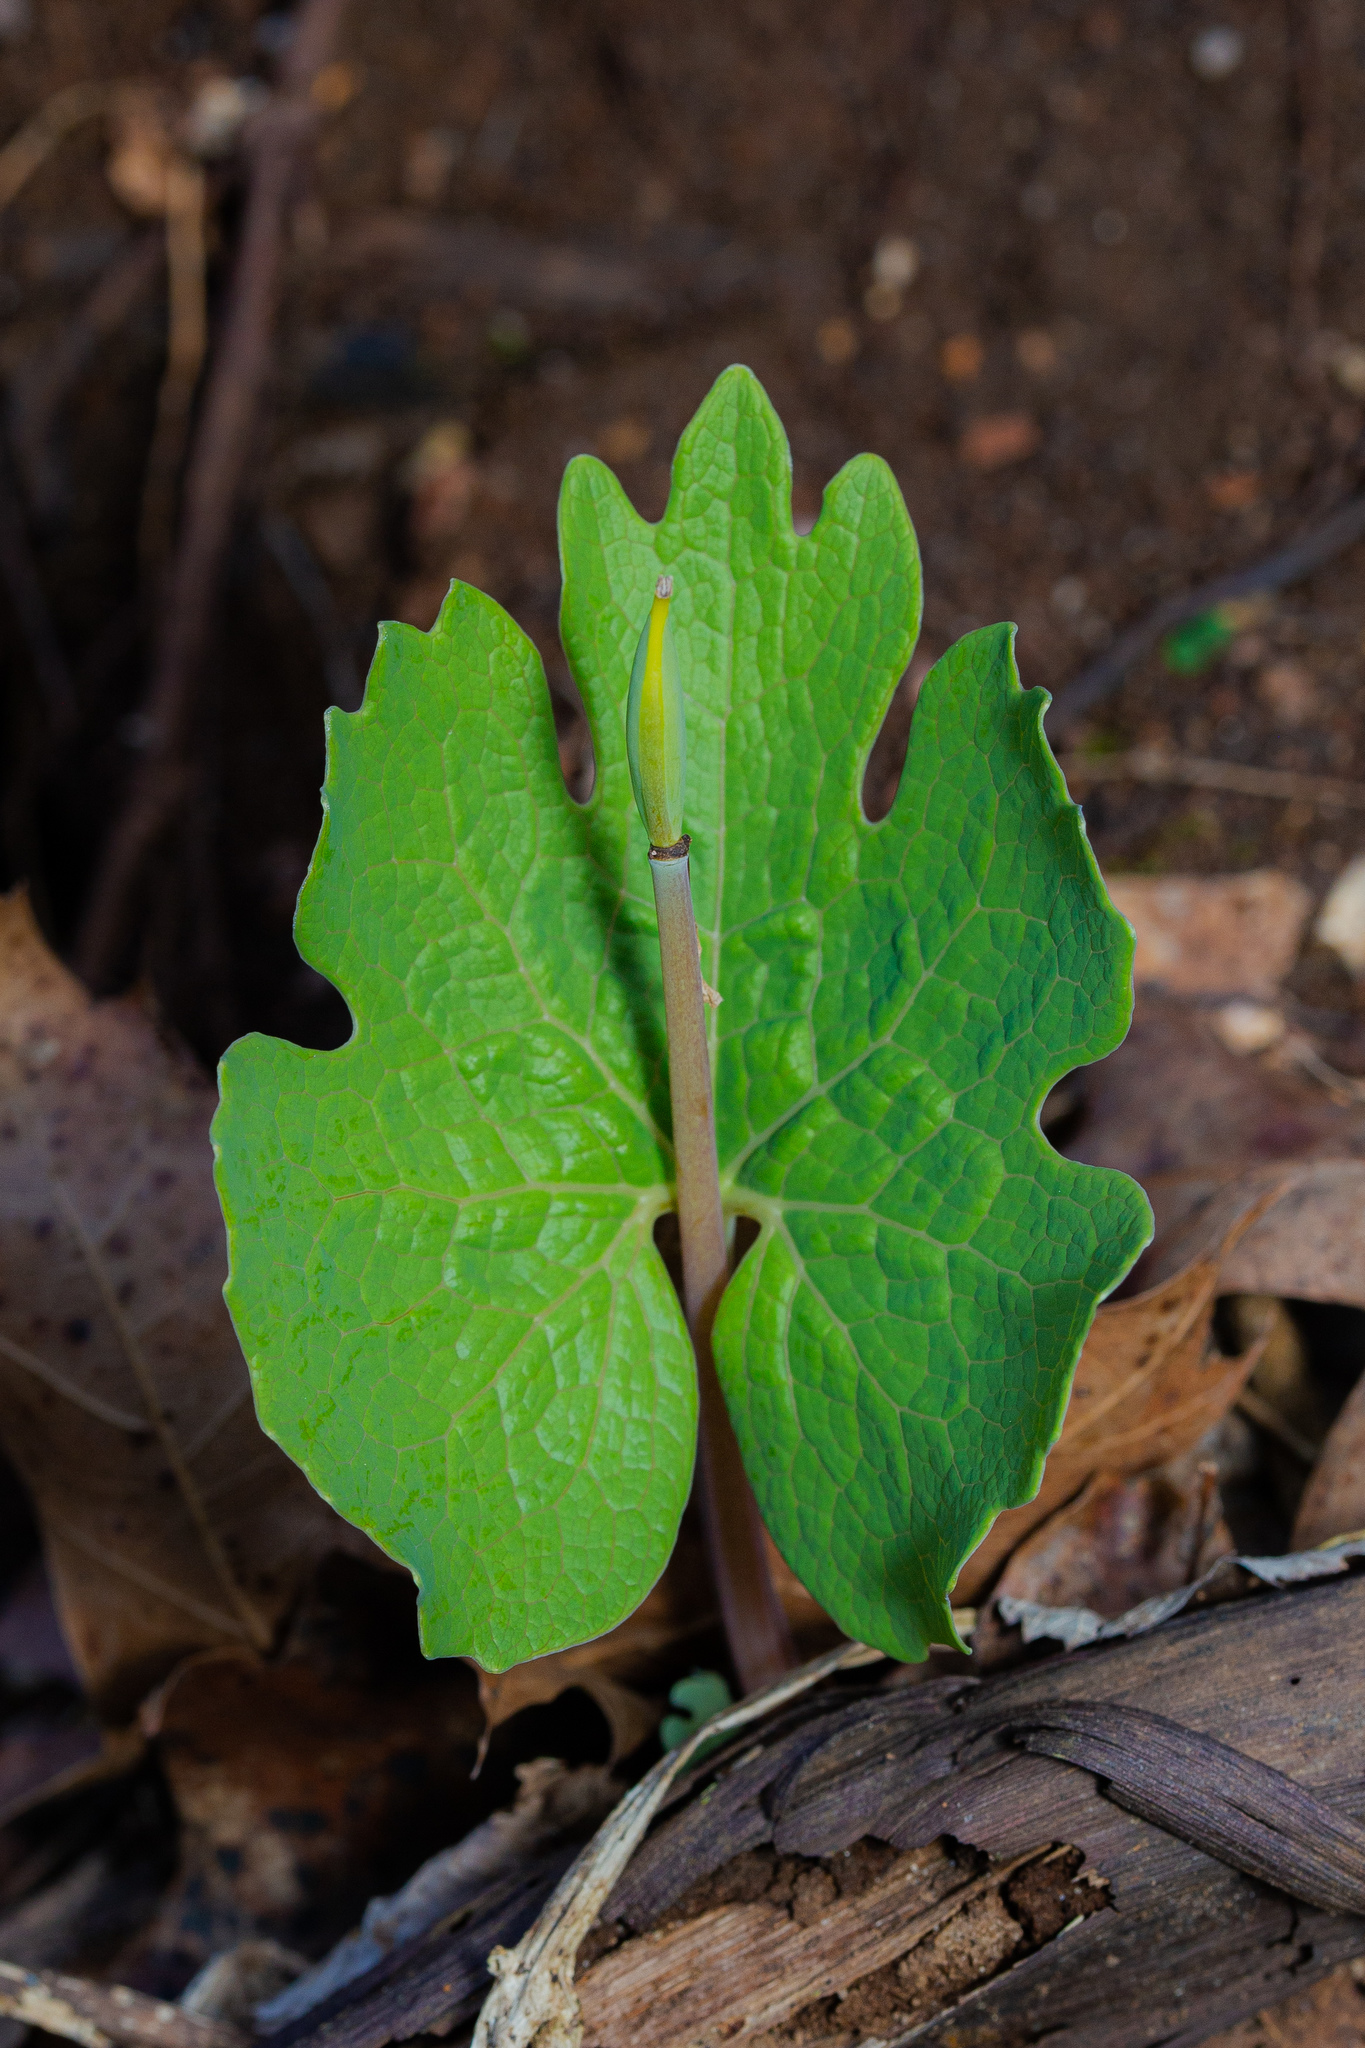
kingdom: Plantae
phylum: Tracheophyta
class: Magnoliopsida
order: Ranunculales
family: Papaveraceae
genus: Sanguinaria
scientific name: Sanguinaria canadensis
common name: Bloodroot
